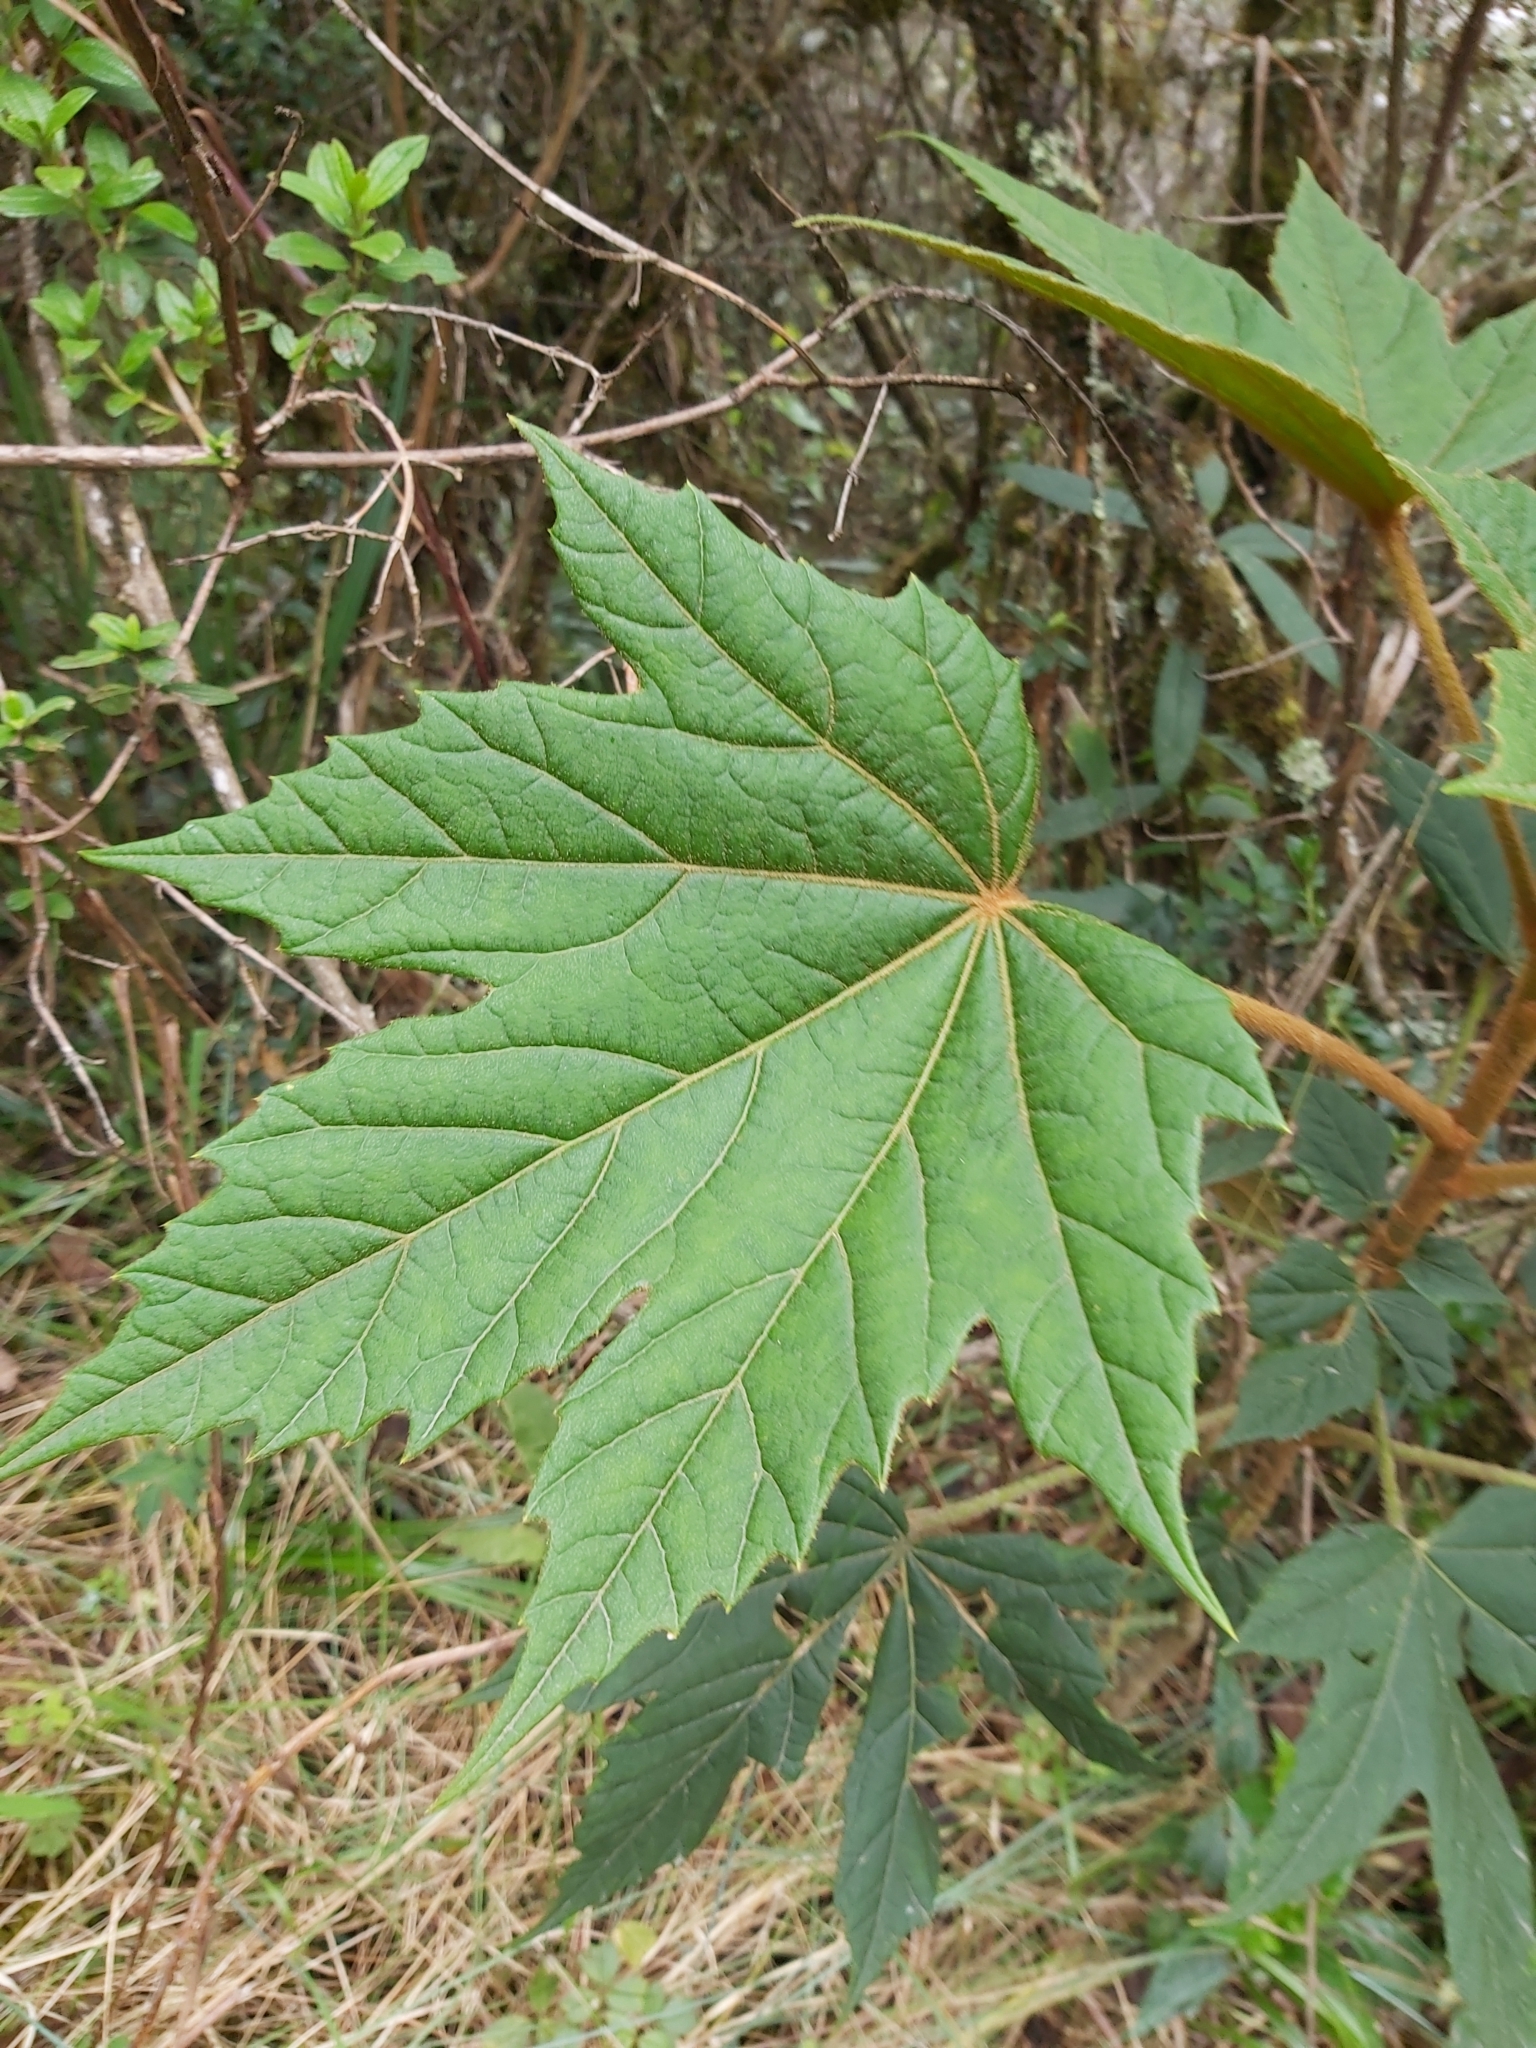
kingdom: Plantae
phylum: Tracheophyta
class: Magnoliopsida
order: Malpighiales
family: Euphorbiaceae
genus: Ricinus
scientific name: Ricinus communis
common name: Castor-oil-plant
